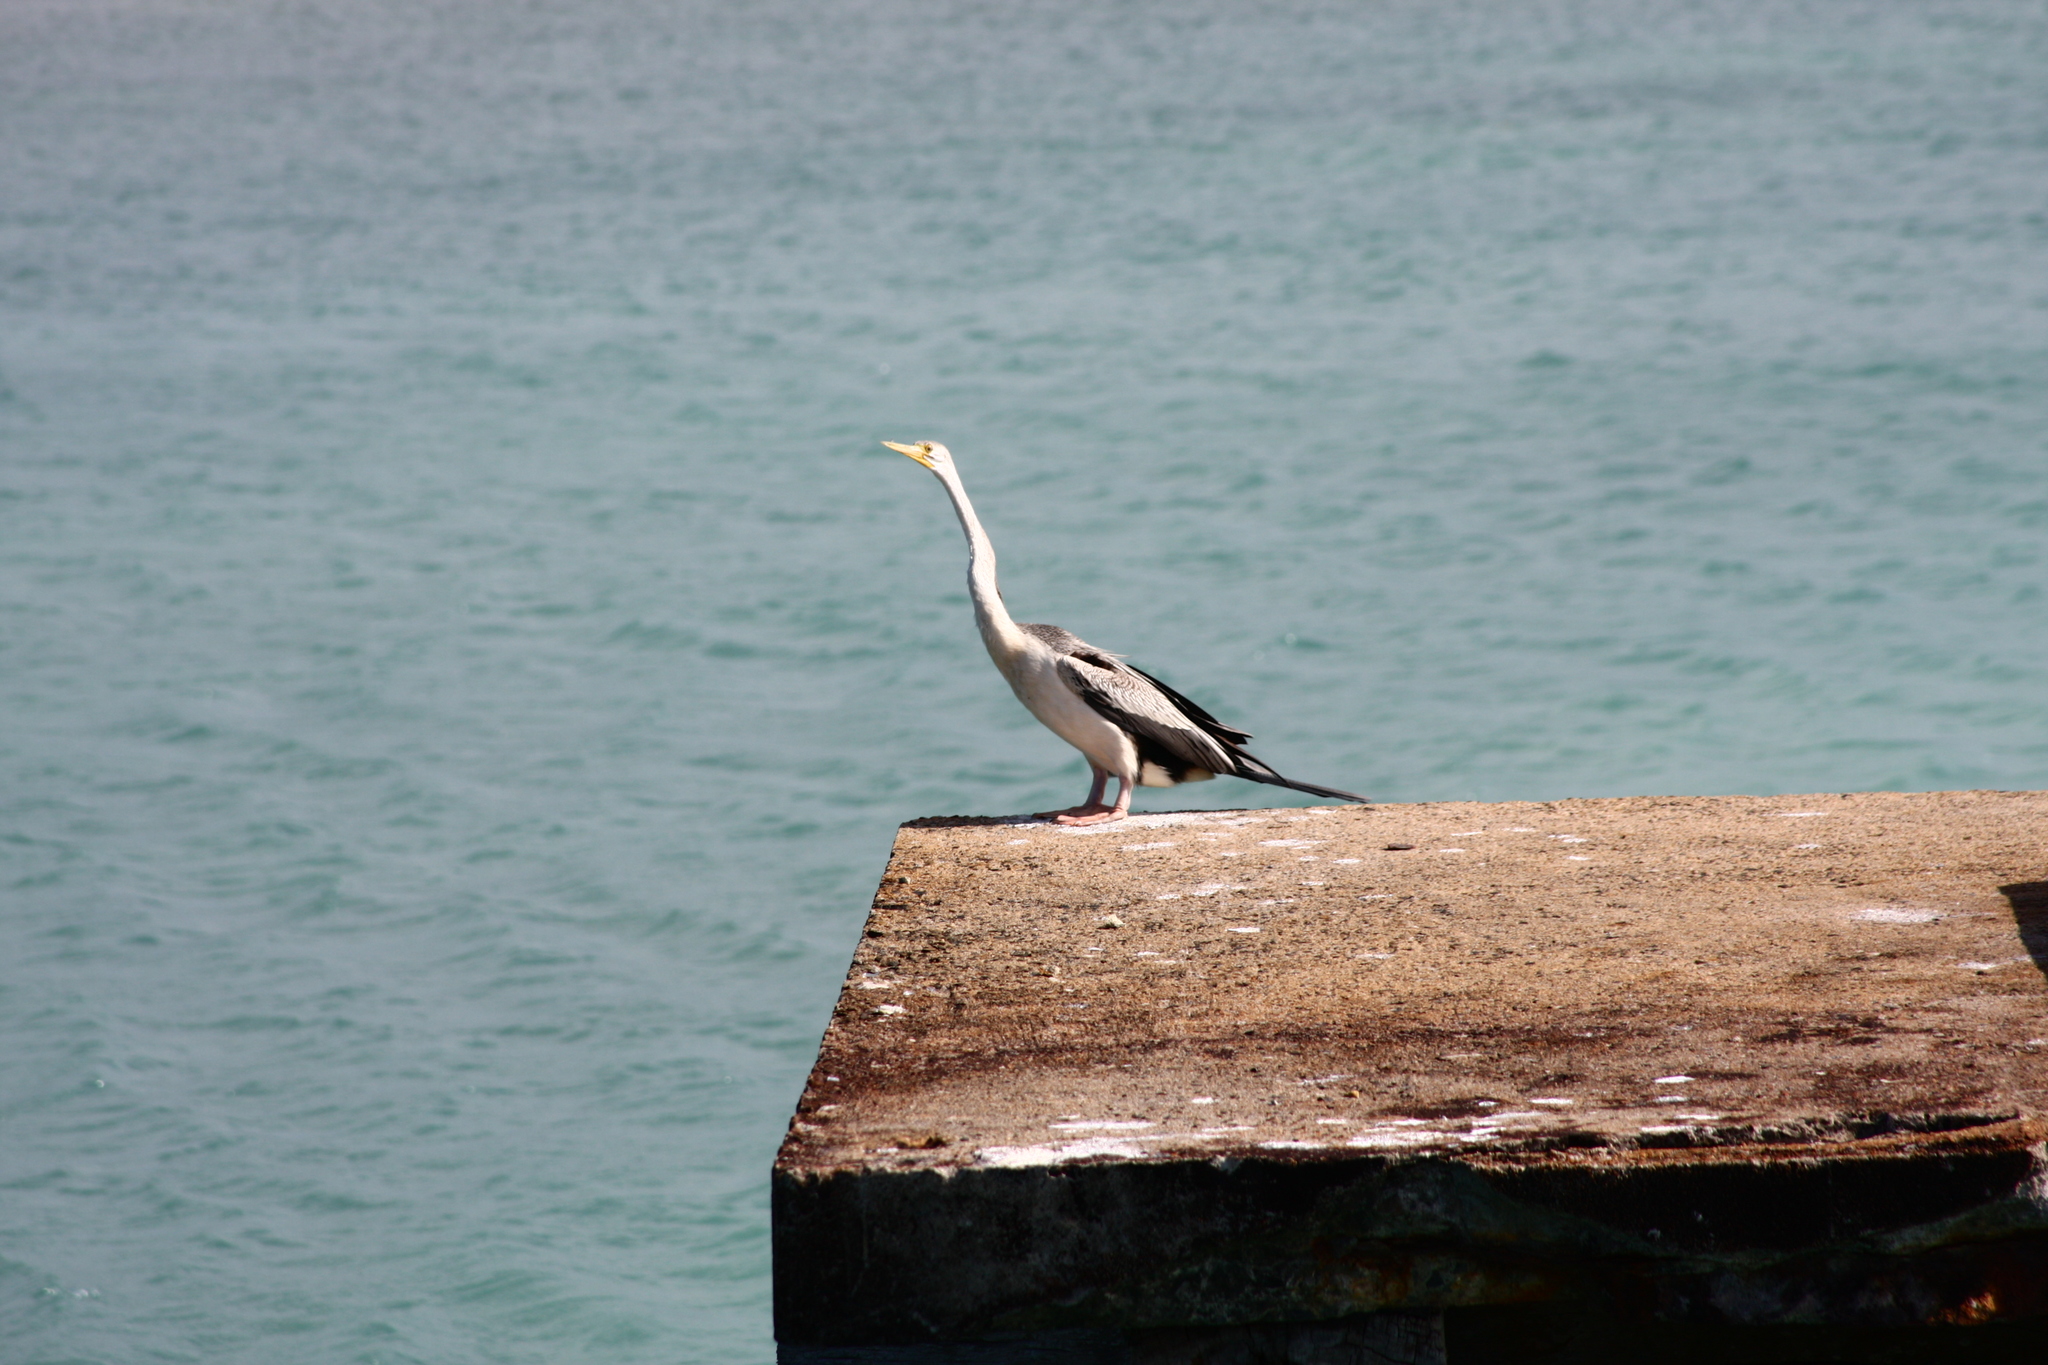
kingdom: Animalia
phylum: Chordata
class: Aves
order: Suliformes
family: Anhingidae
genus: Anhinga
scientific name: Anhinga novaehollandiae
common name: Australasian darter
